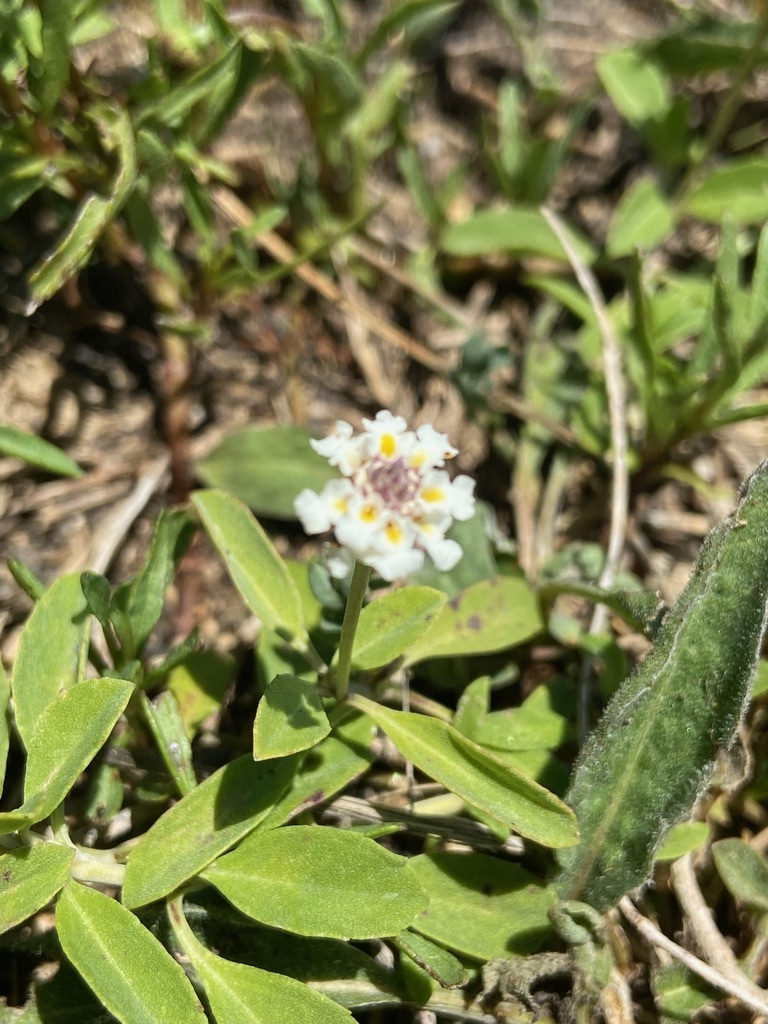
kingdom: Plantae
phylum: Tracheophyta
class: Magnoliopsida
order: Lamiales
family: Verbenaceae
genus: Phyla
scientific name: Phyla nodiflora
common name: Frogfruit
